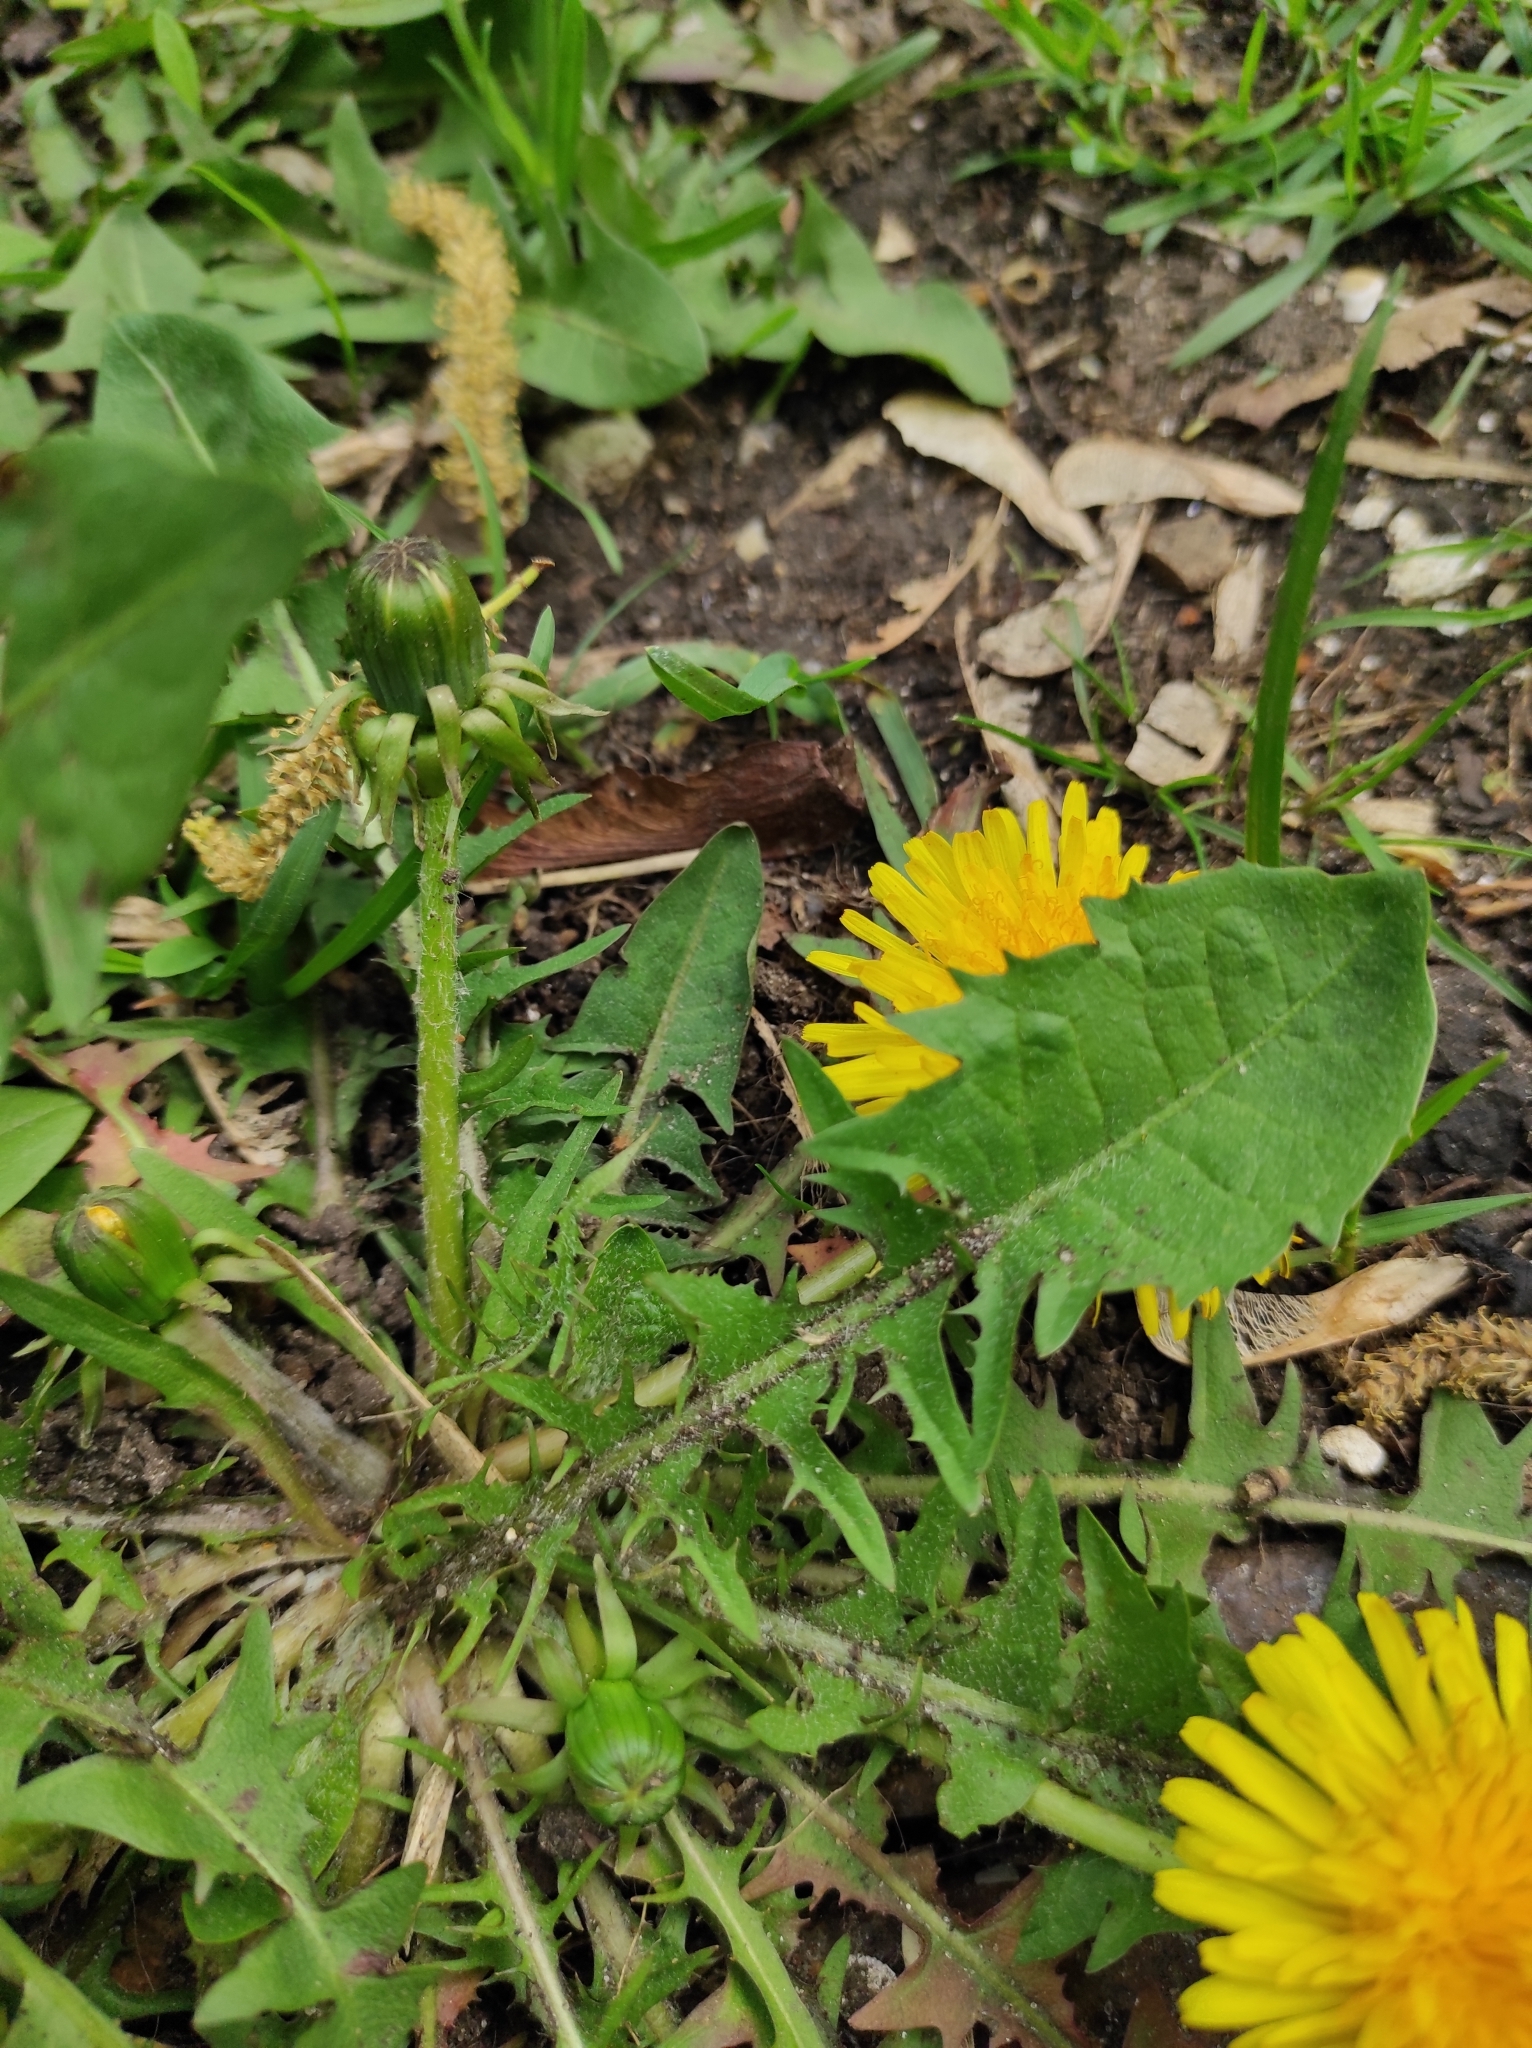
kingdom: Plantae
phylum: Tracheophyta
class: Magnoliopsida
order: Asterales
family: Asteraceae
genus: Taraxacum
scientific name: Taraxacum officinale
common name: Common dandelion
